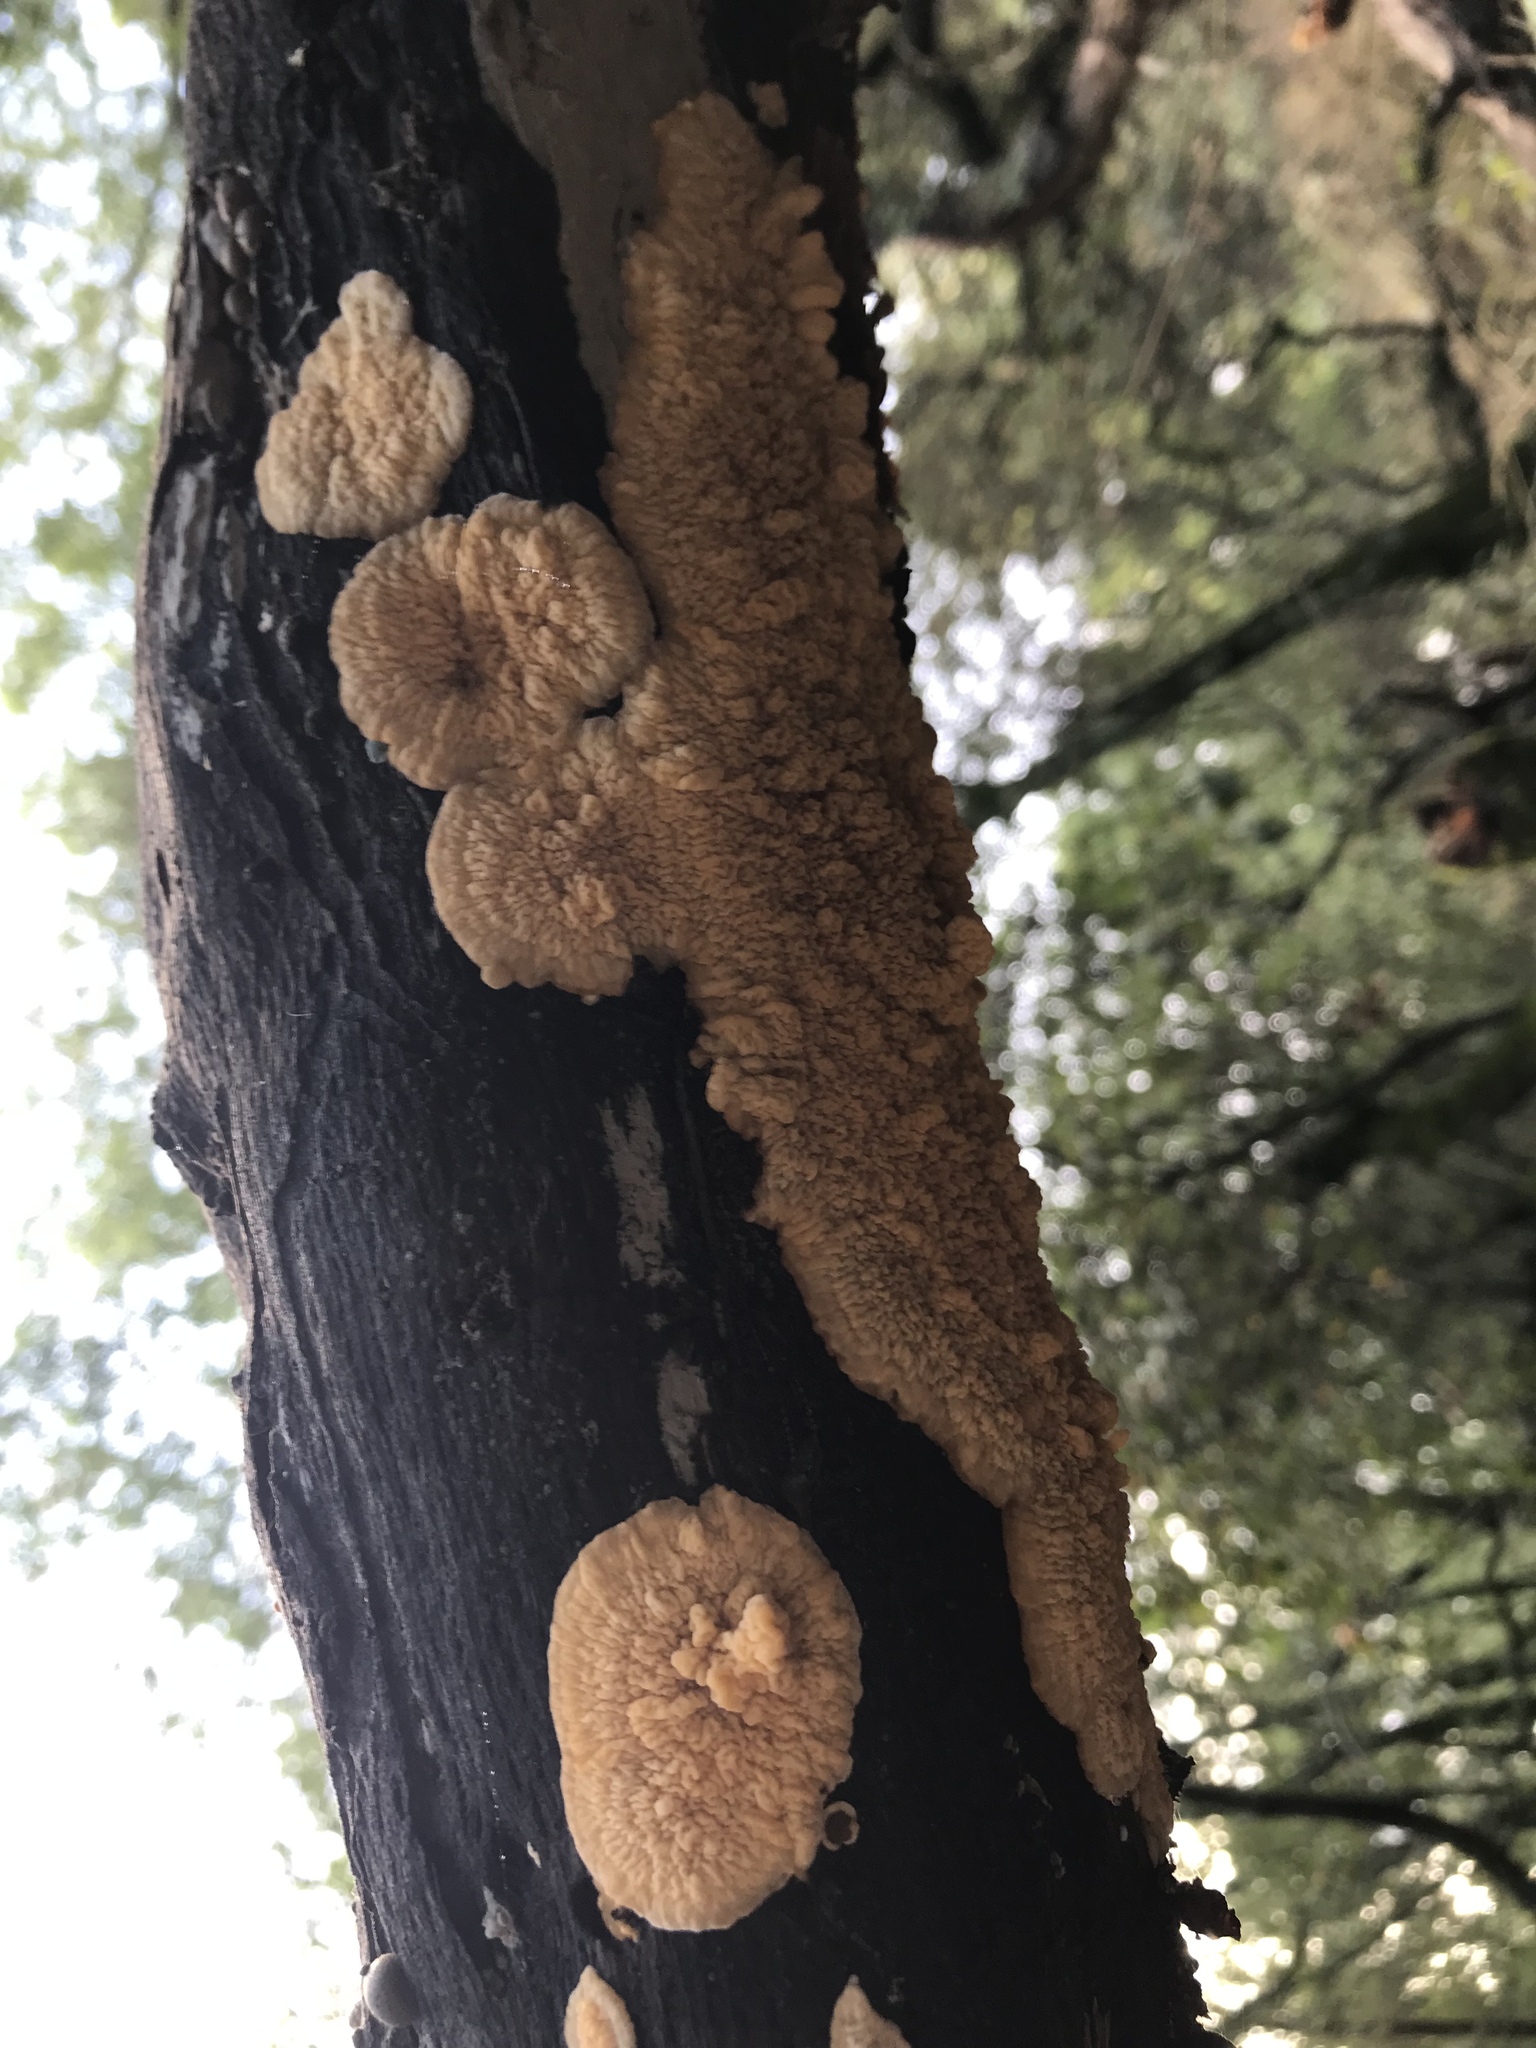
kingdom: Fungi
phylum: Basidiomycota
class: Agaricomycetes
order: Polyporales
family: Meruliaceae
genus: Phlebia
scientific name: Phlebia radiata
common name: Wrinkled crust
